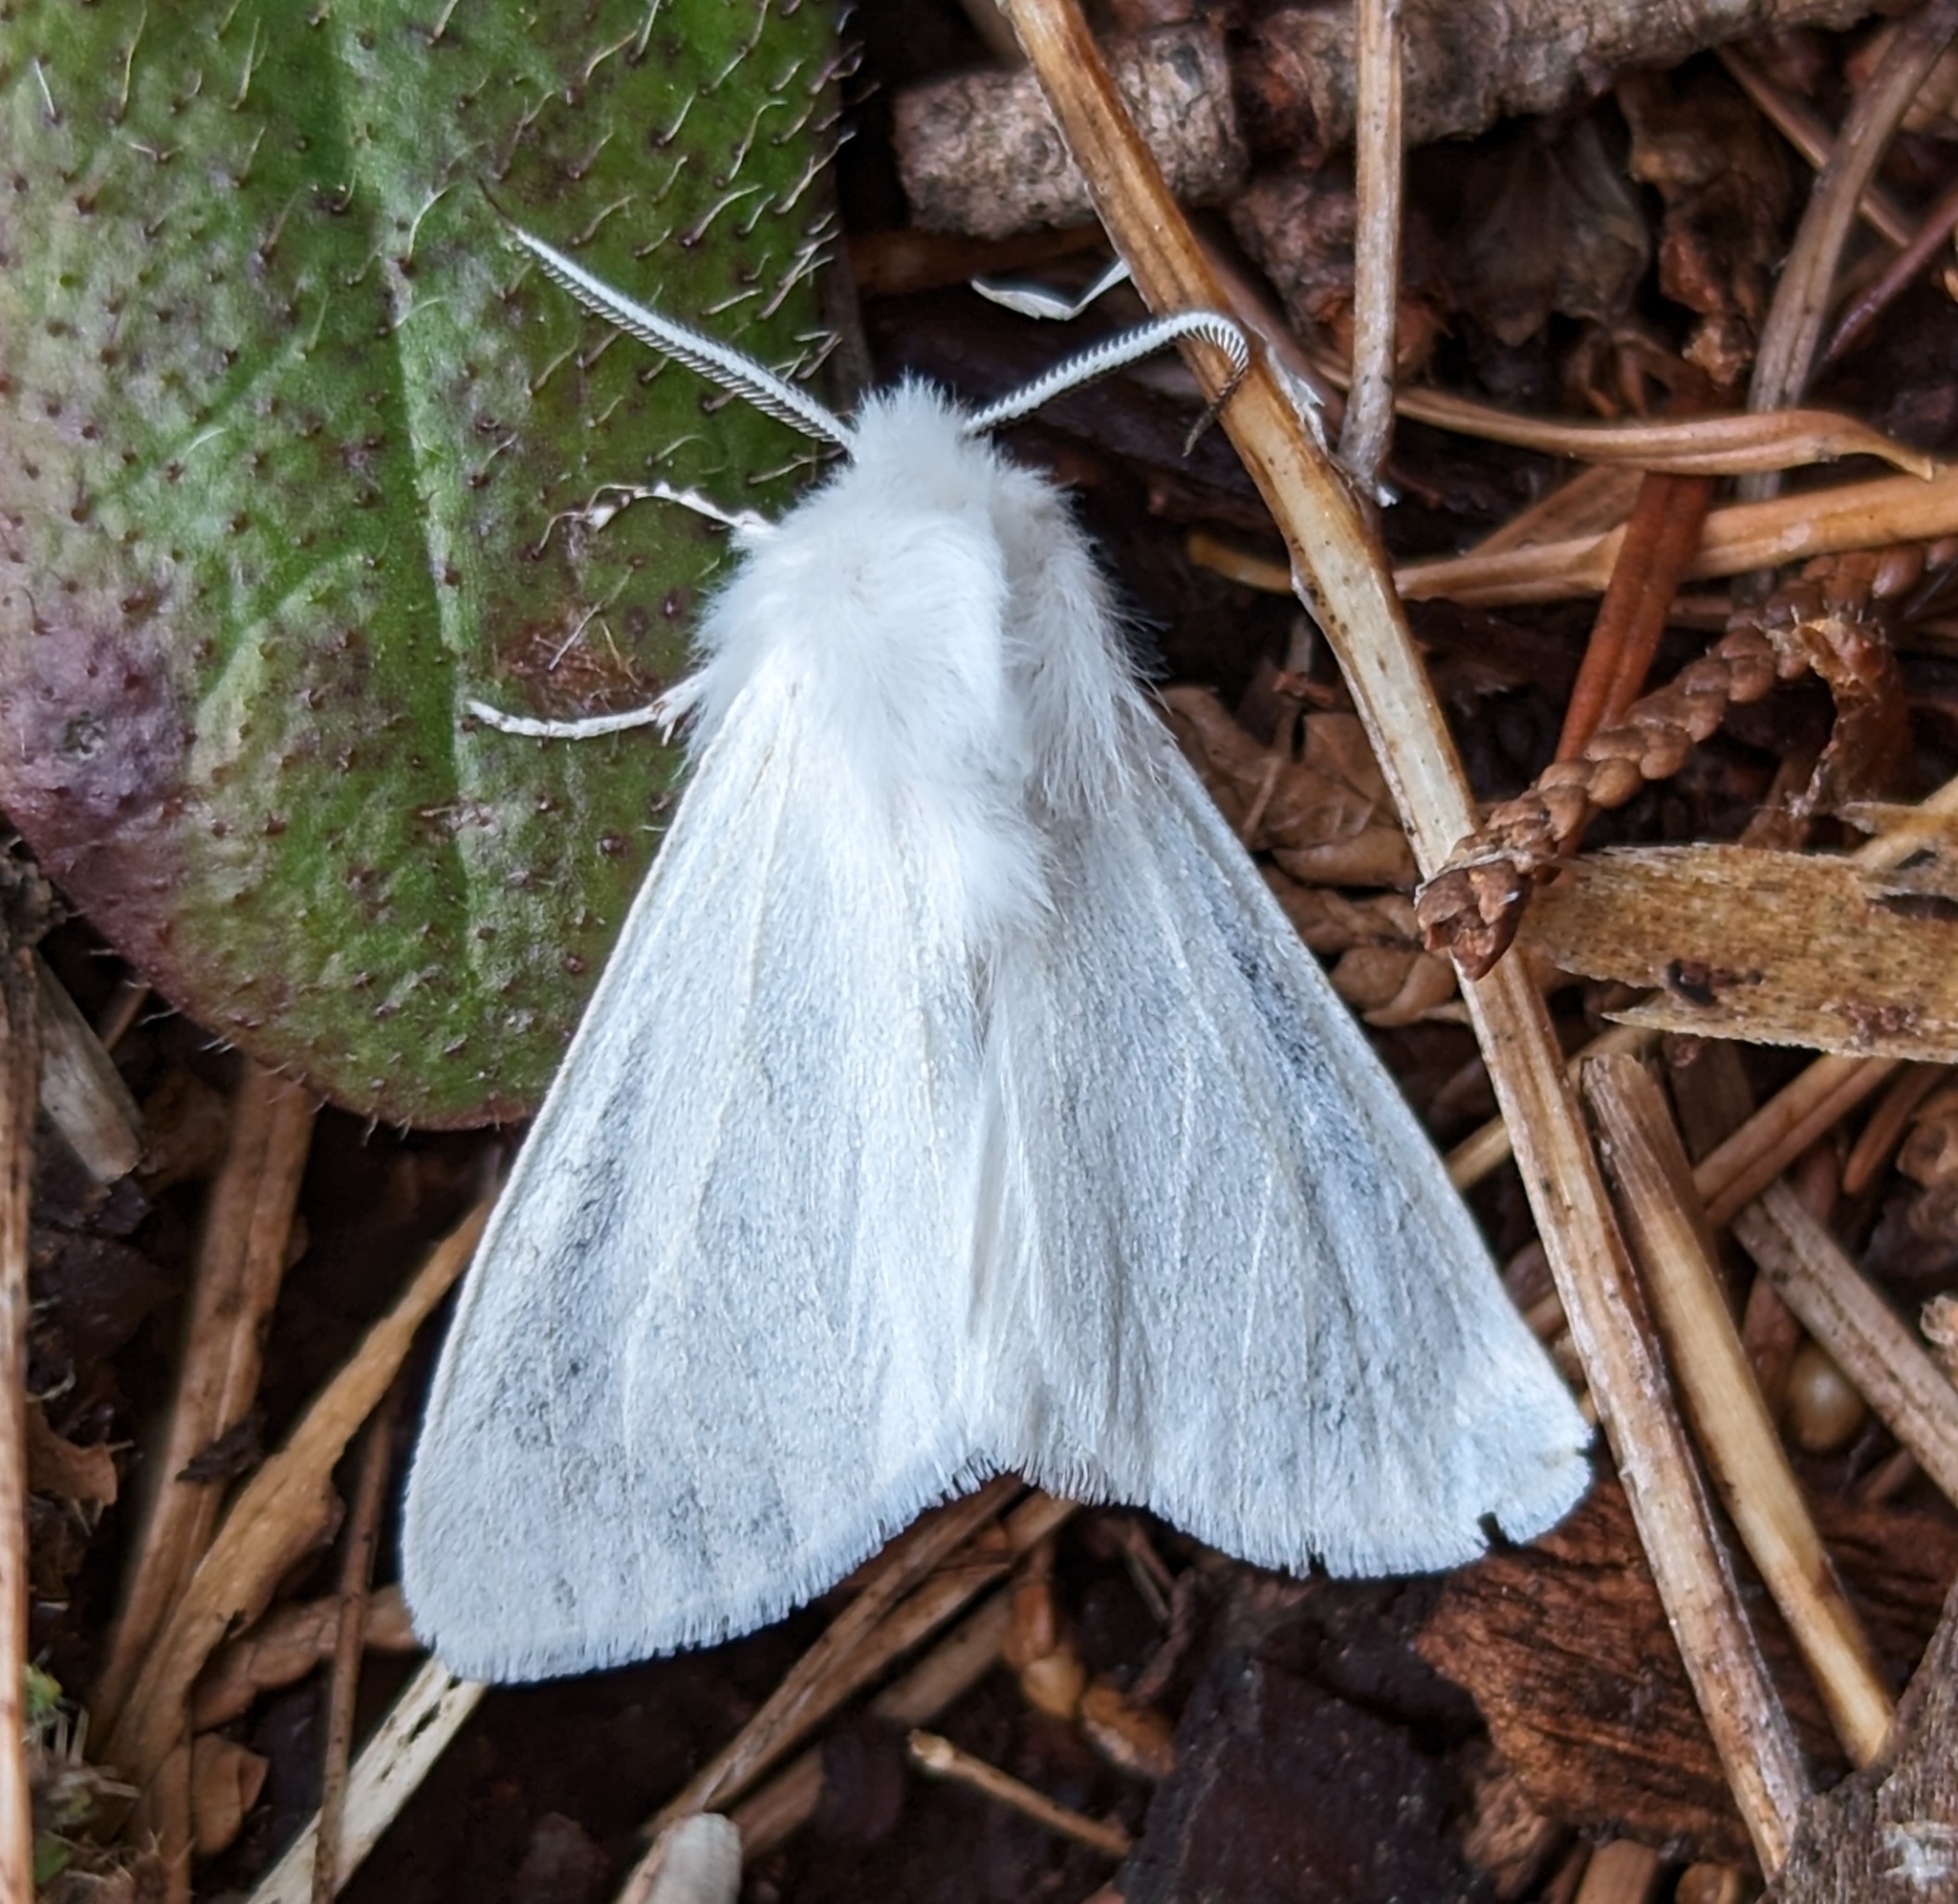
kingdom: Animalia
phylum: Arthropoda
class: Insecta
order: Lepidoptera
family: Erebidae
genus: Hyphantria
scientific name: Hyphantria cunea
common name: American white moth
